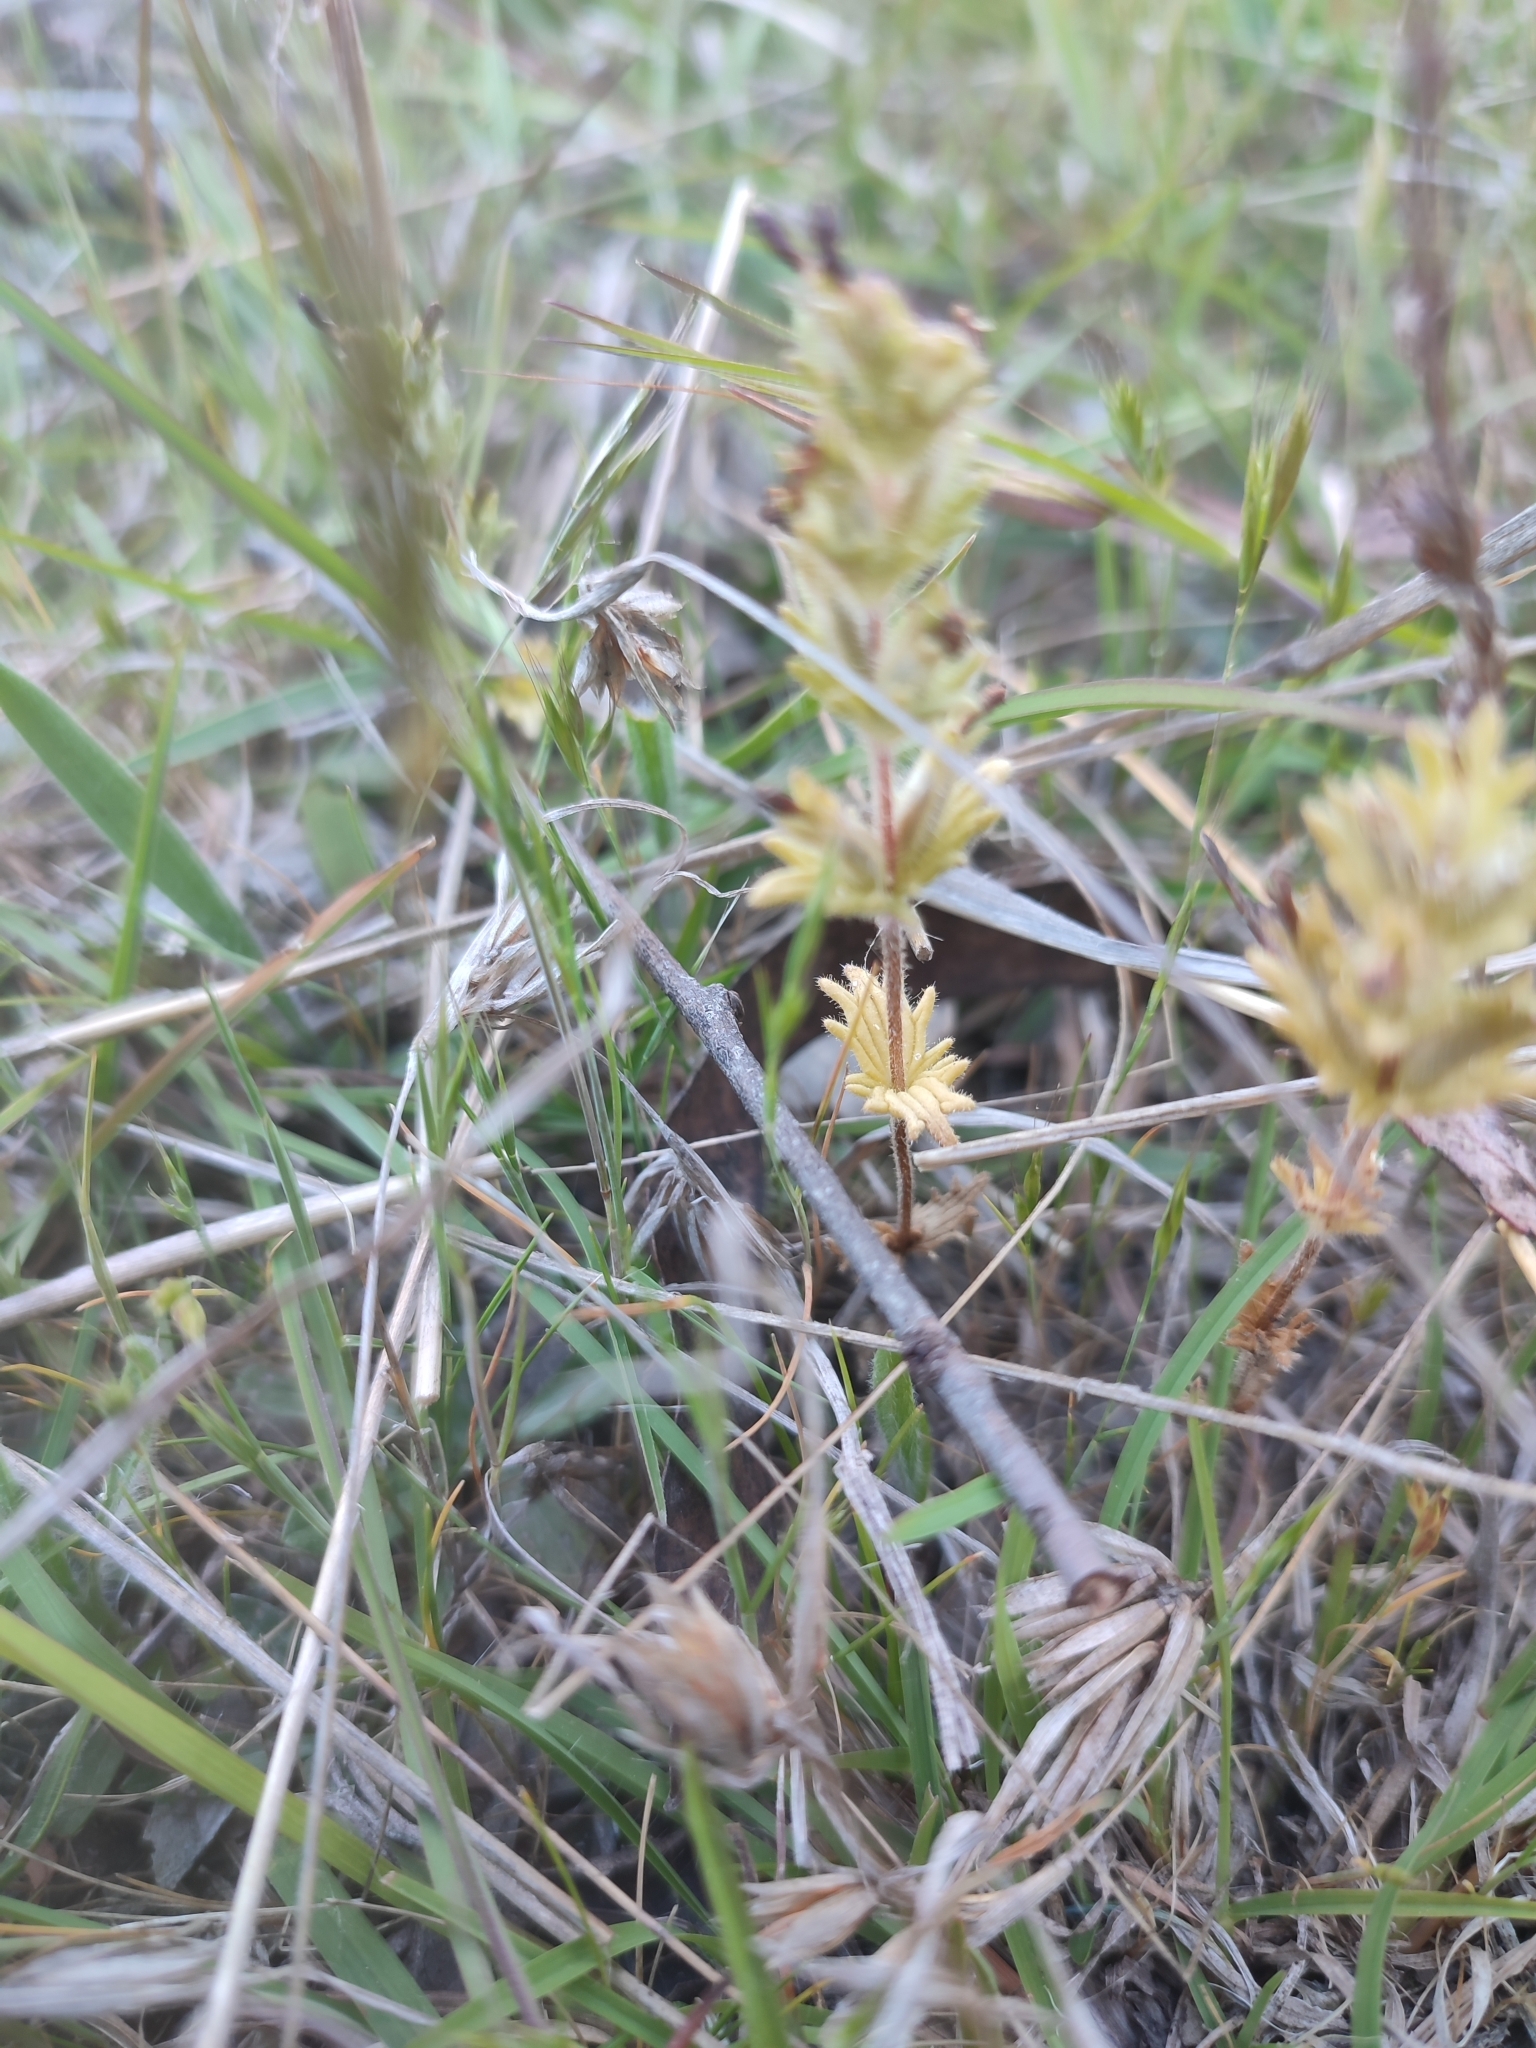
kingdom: Plantae
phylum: Tracheophyta
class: Magnoliopsida
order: Lamiales
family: Orobanchaceae
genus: Parentucellia
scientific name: Parentucellia latifolia
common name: Broadleaf glandweed
